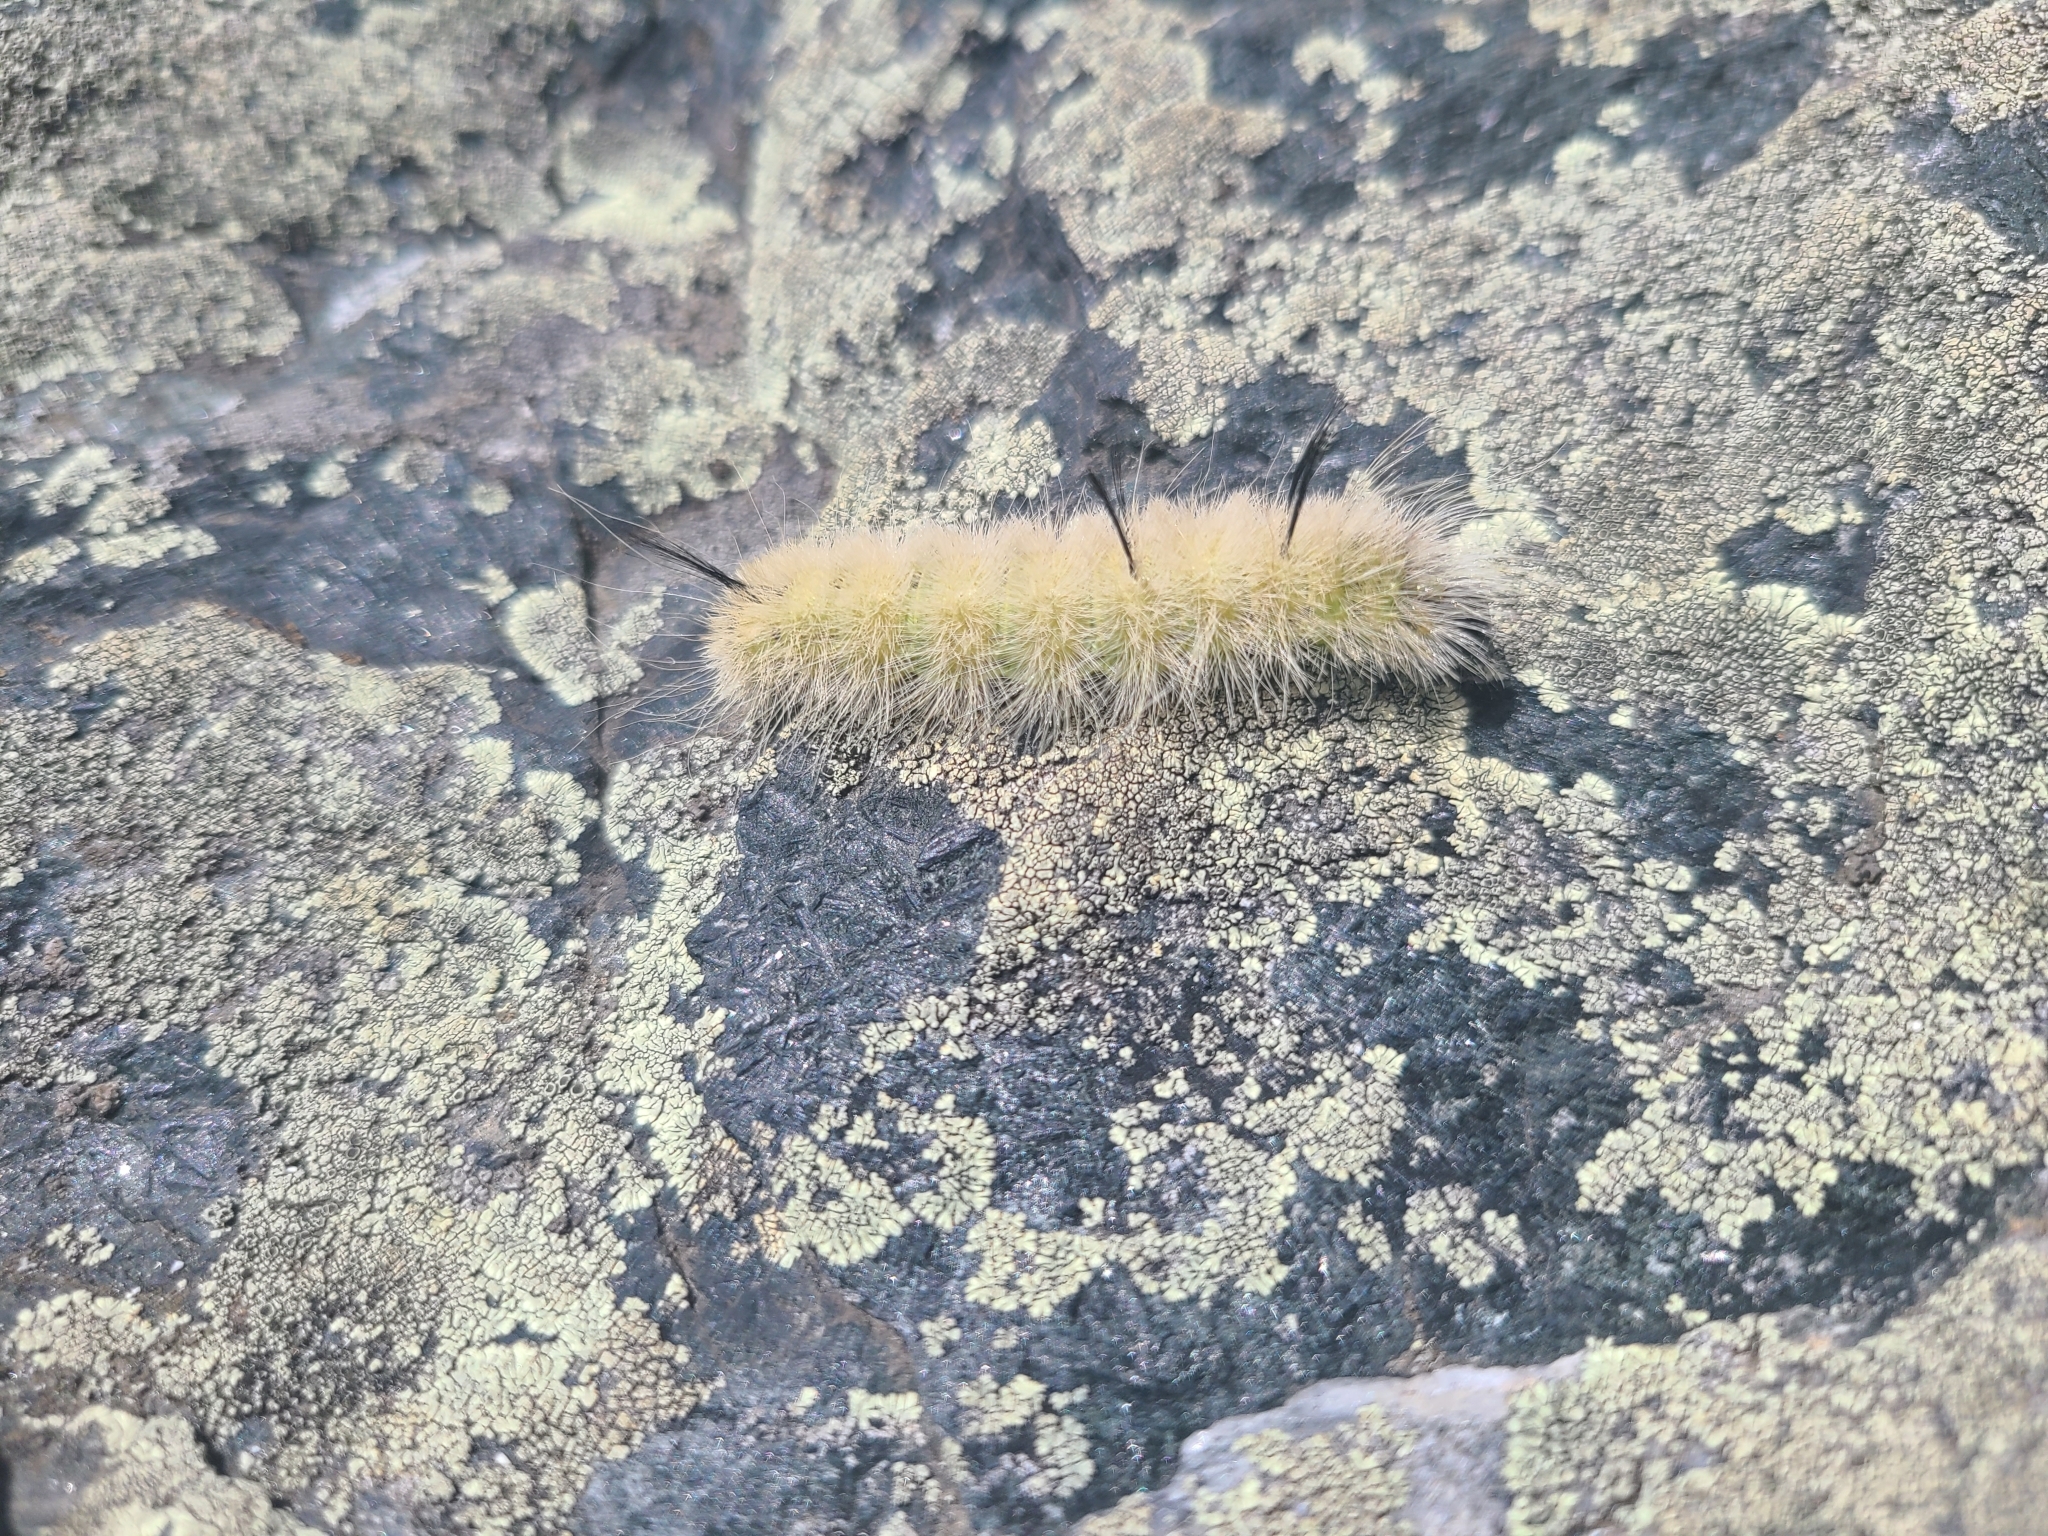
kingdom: Animalia
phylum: Arthropoda
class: Insecta
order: Lepidoptera
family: Noctuidae
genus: Acronicta
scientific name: Acronicta americana
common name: American dagger
